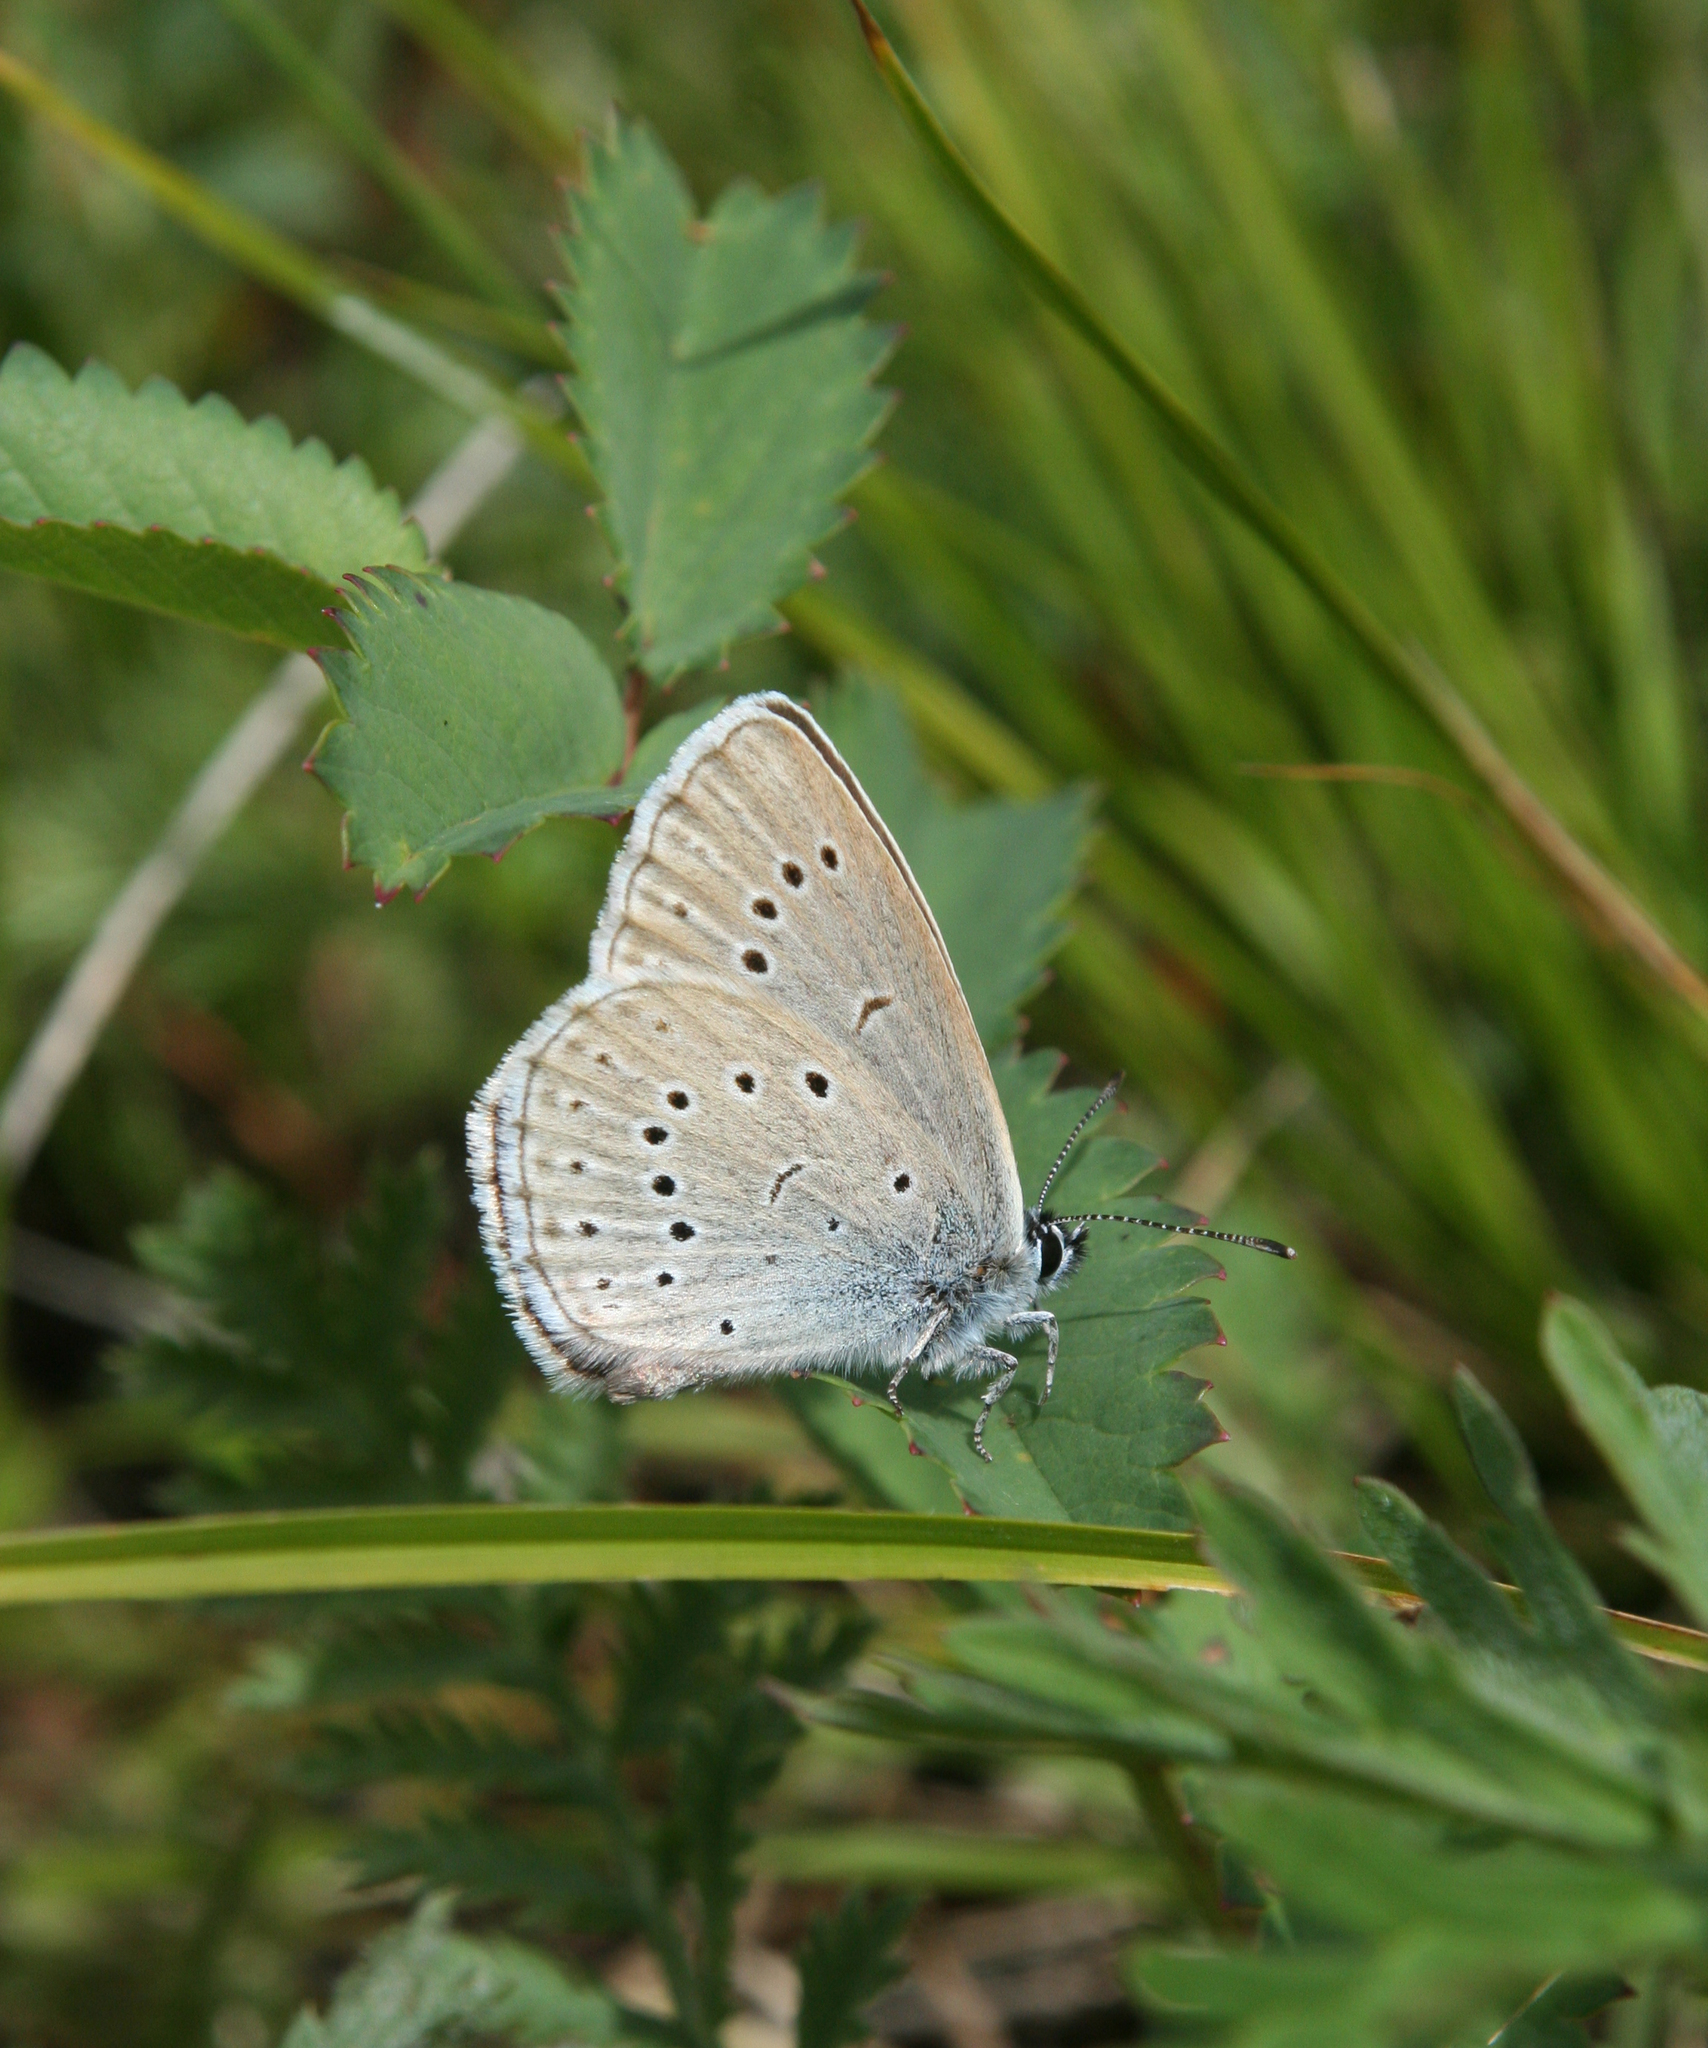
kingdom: Animalia
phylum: Arthropoda
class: Insecta
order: Lepidoptera
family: Lycaenidae
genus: Phengaris
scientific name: Phengaris teleius
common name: Scarce large blue
